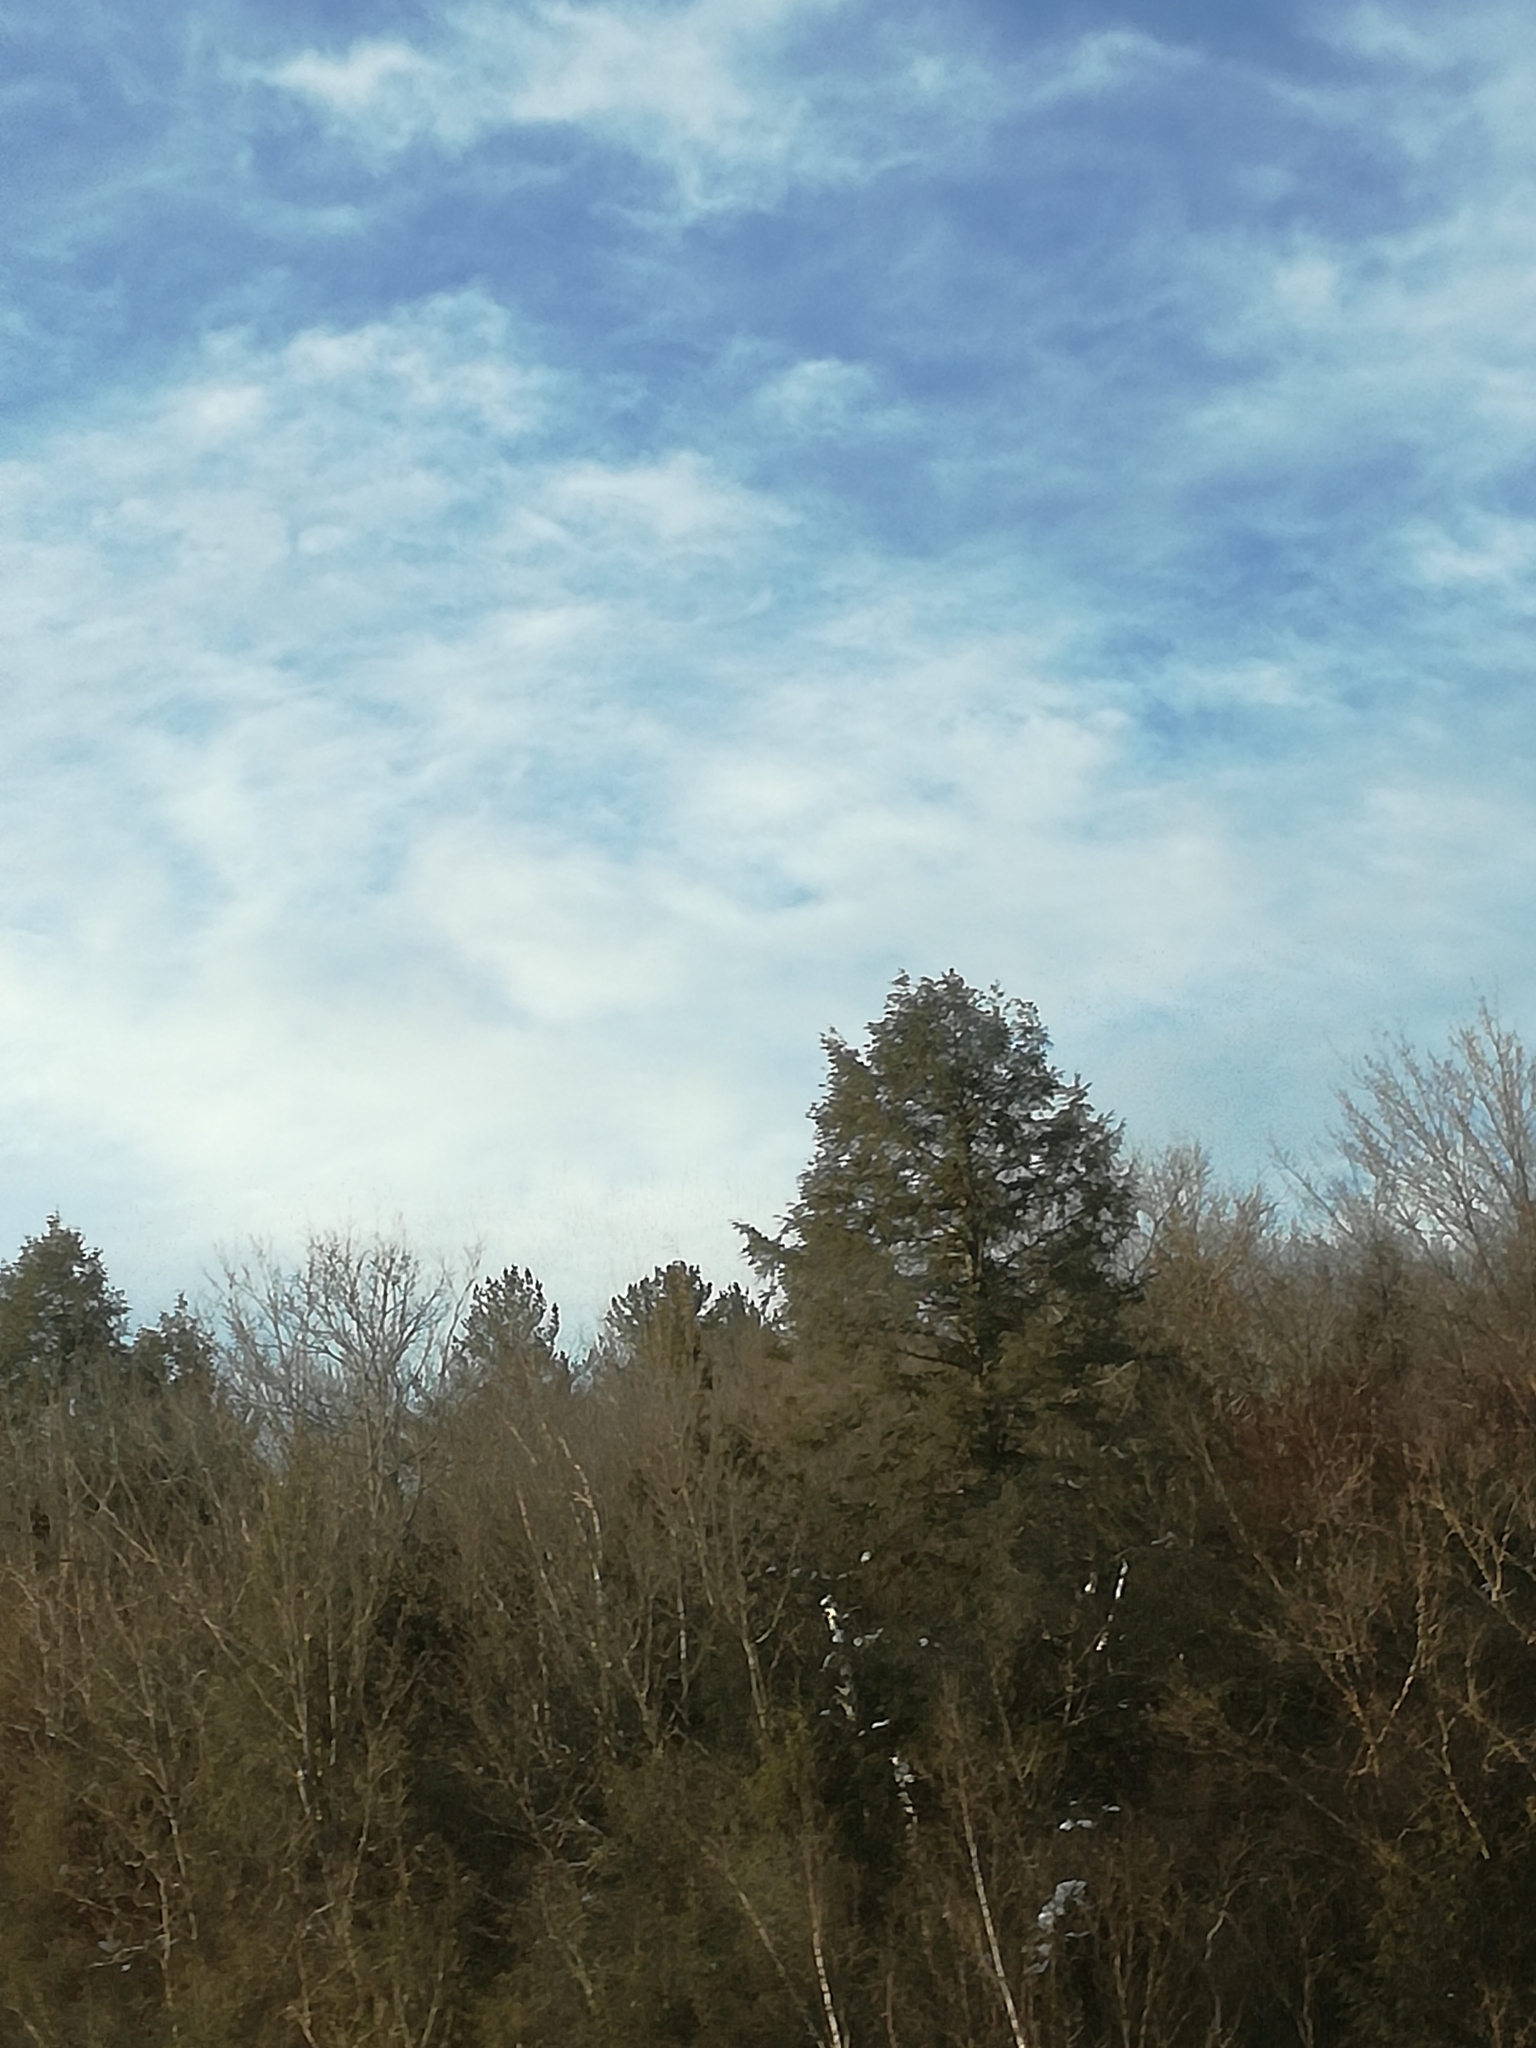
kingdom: Plantae
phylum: Tracheophyta
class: Pinopsida
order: Pinales
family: Pinaceae
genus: Tsuga
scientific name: Tsuga canadensis
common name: Eastern hemlock
